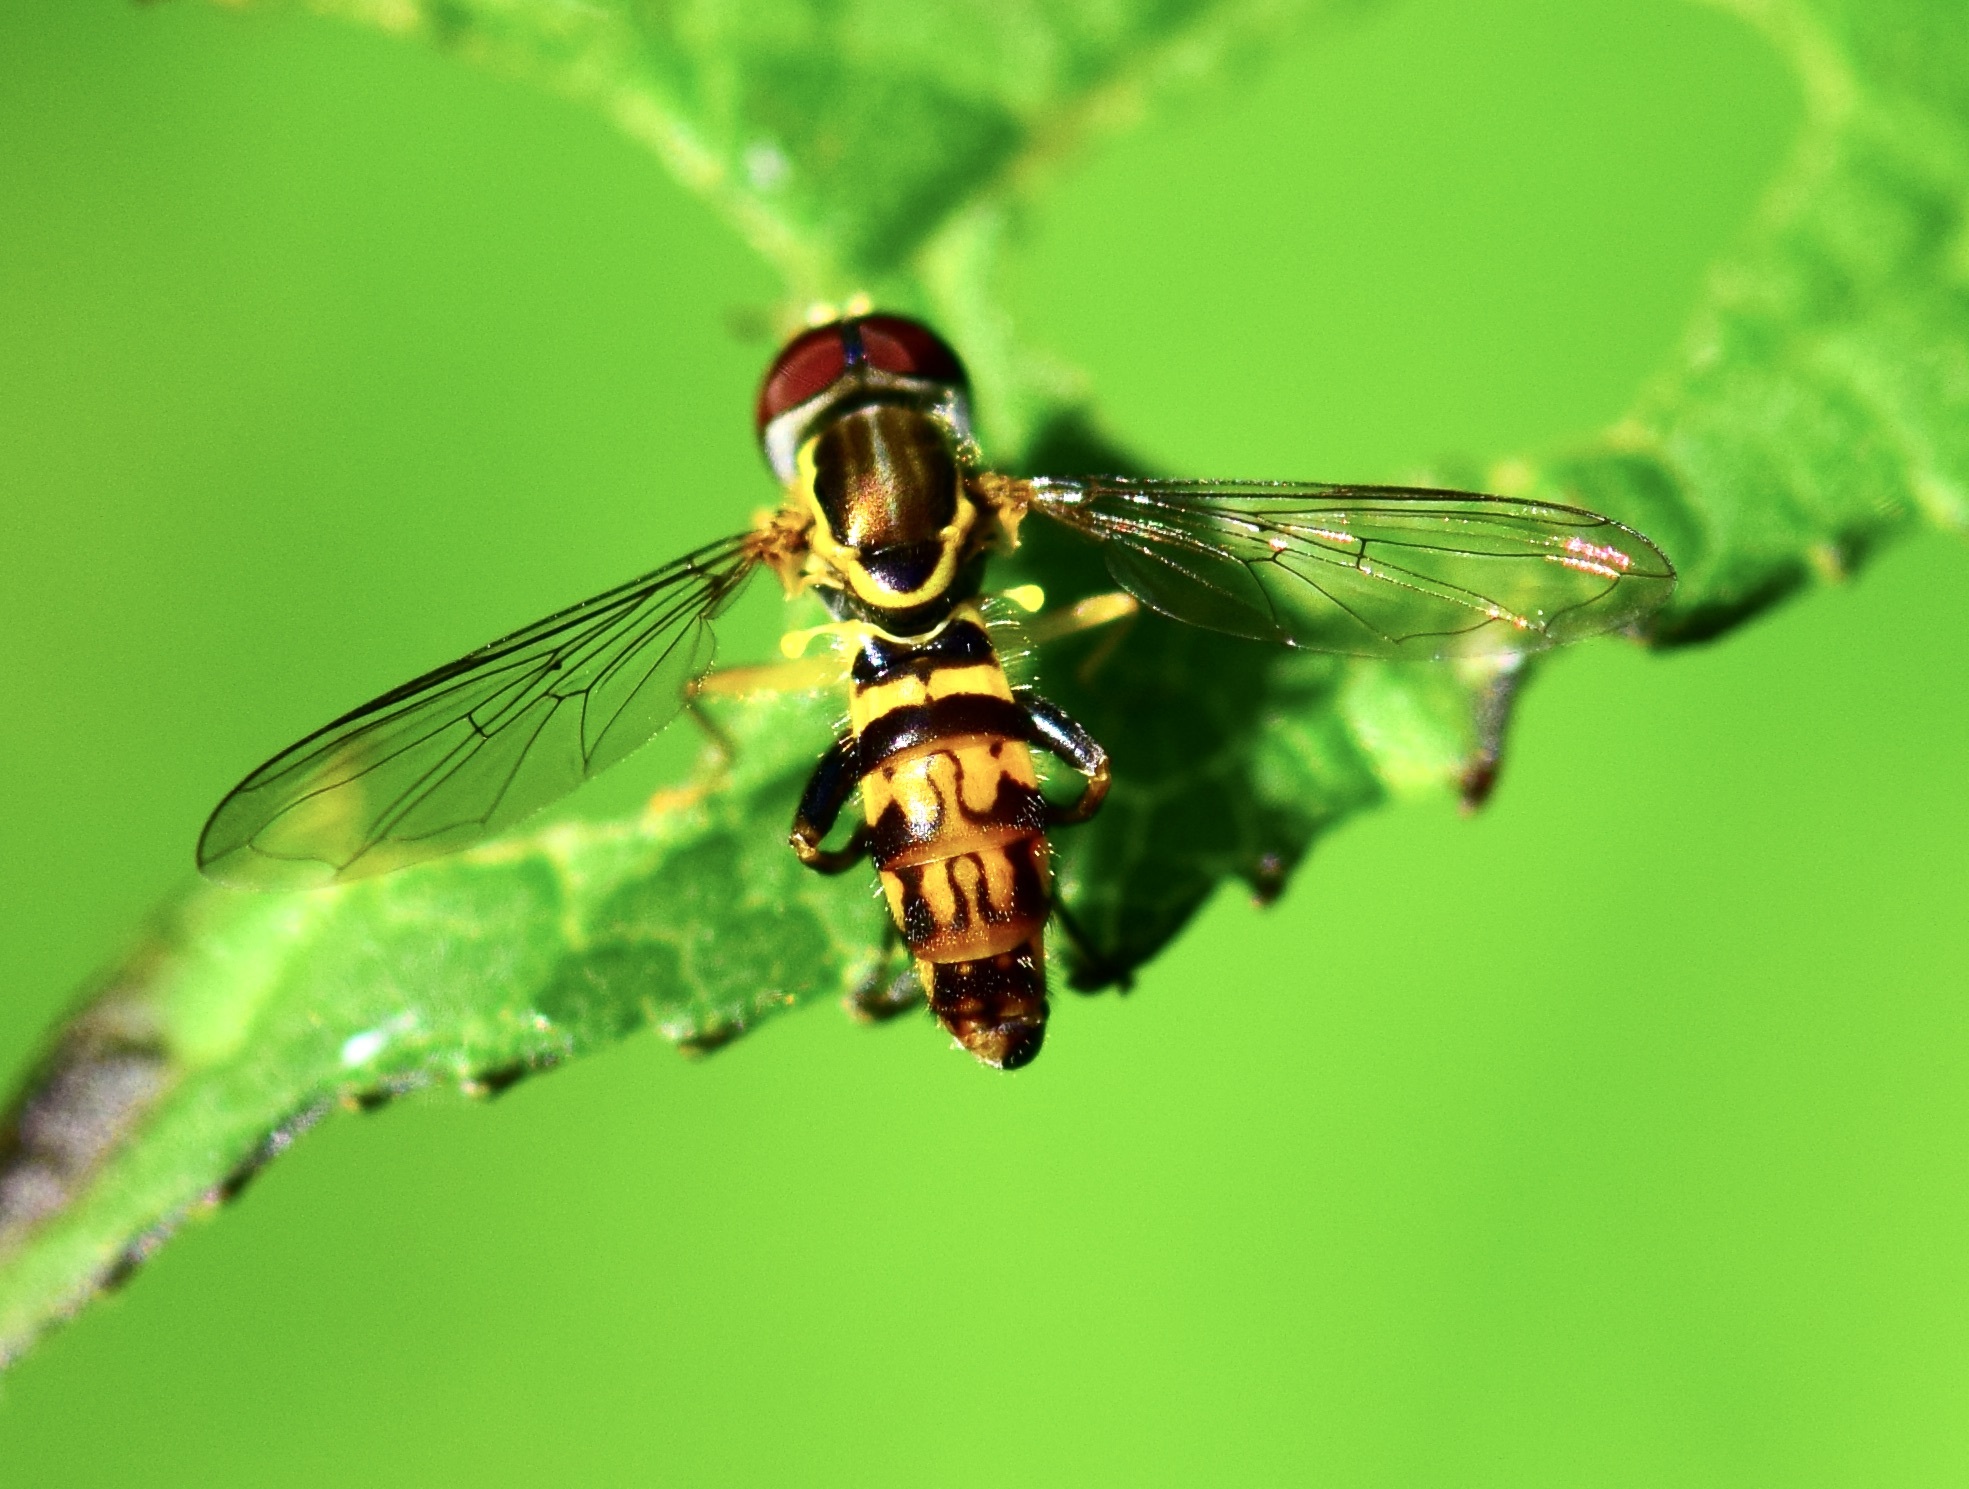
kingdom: Animalia
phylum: Arthropoda
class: Insecta
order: Diptera
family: Syrphidae
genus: Toxomerus
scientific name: Toxomerus geminatus
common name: Eastern calligrapher
